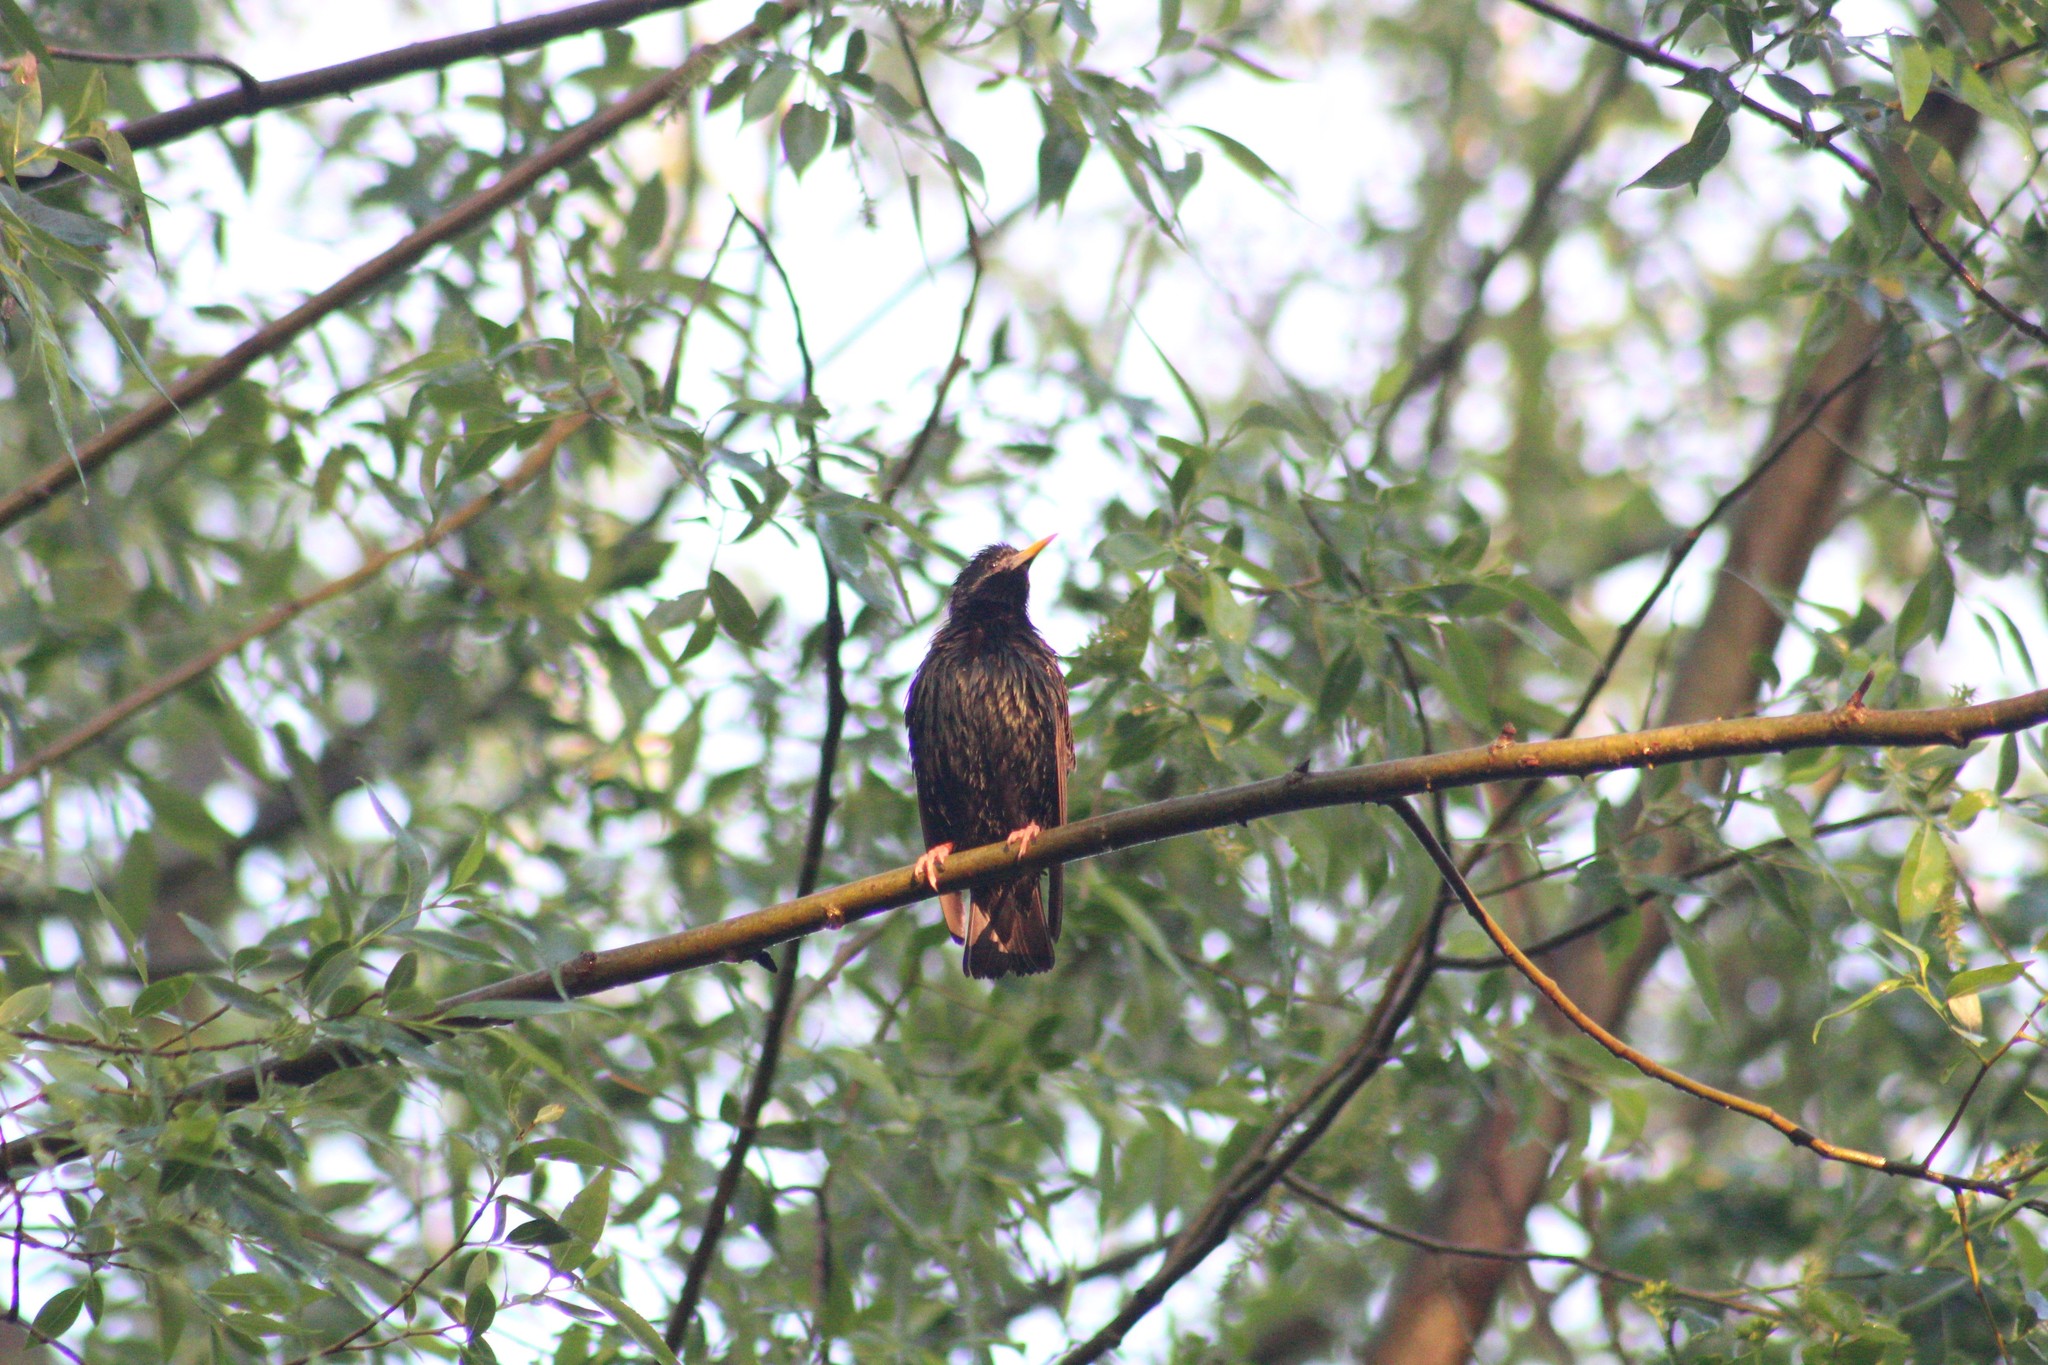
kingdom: Animalia
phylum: Chordata
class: Aves
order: Passeriformes
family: Sturnidae
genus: Sturnus
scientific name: Sturnus vulgaris
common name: Common starling
